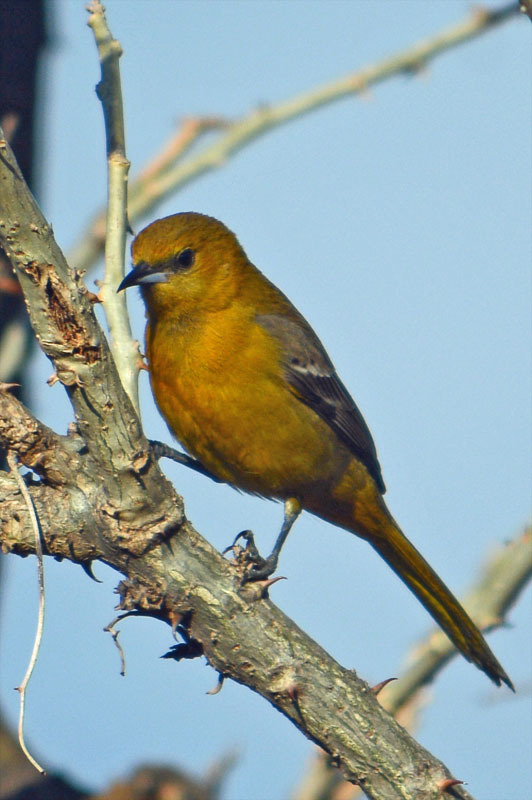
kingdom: Animalia
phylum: Chordata
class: Aves
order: Passeriformes
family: Icteridae
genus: Icterus
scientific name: Icterus cucullatus
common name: Hooded oriole
